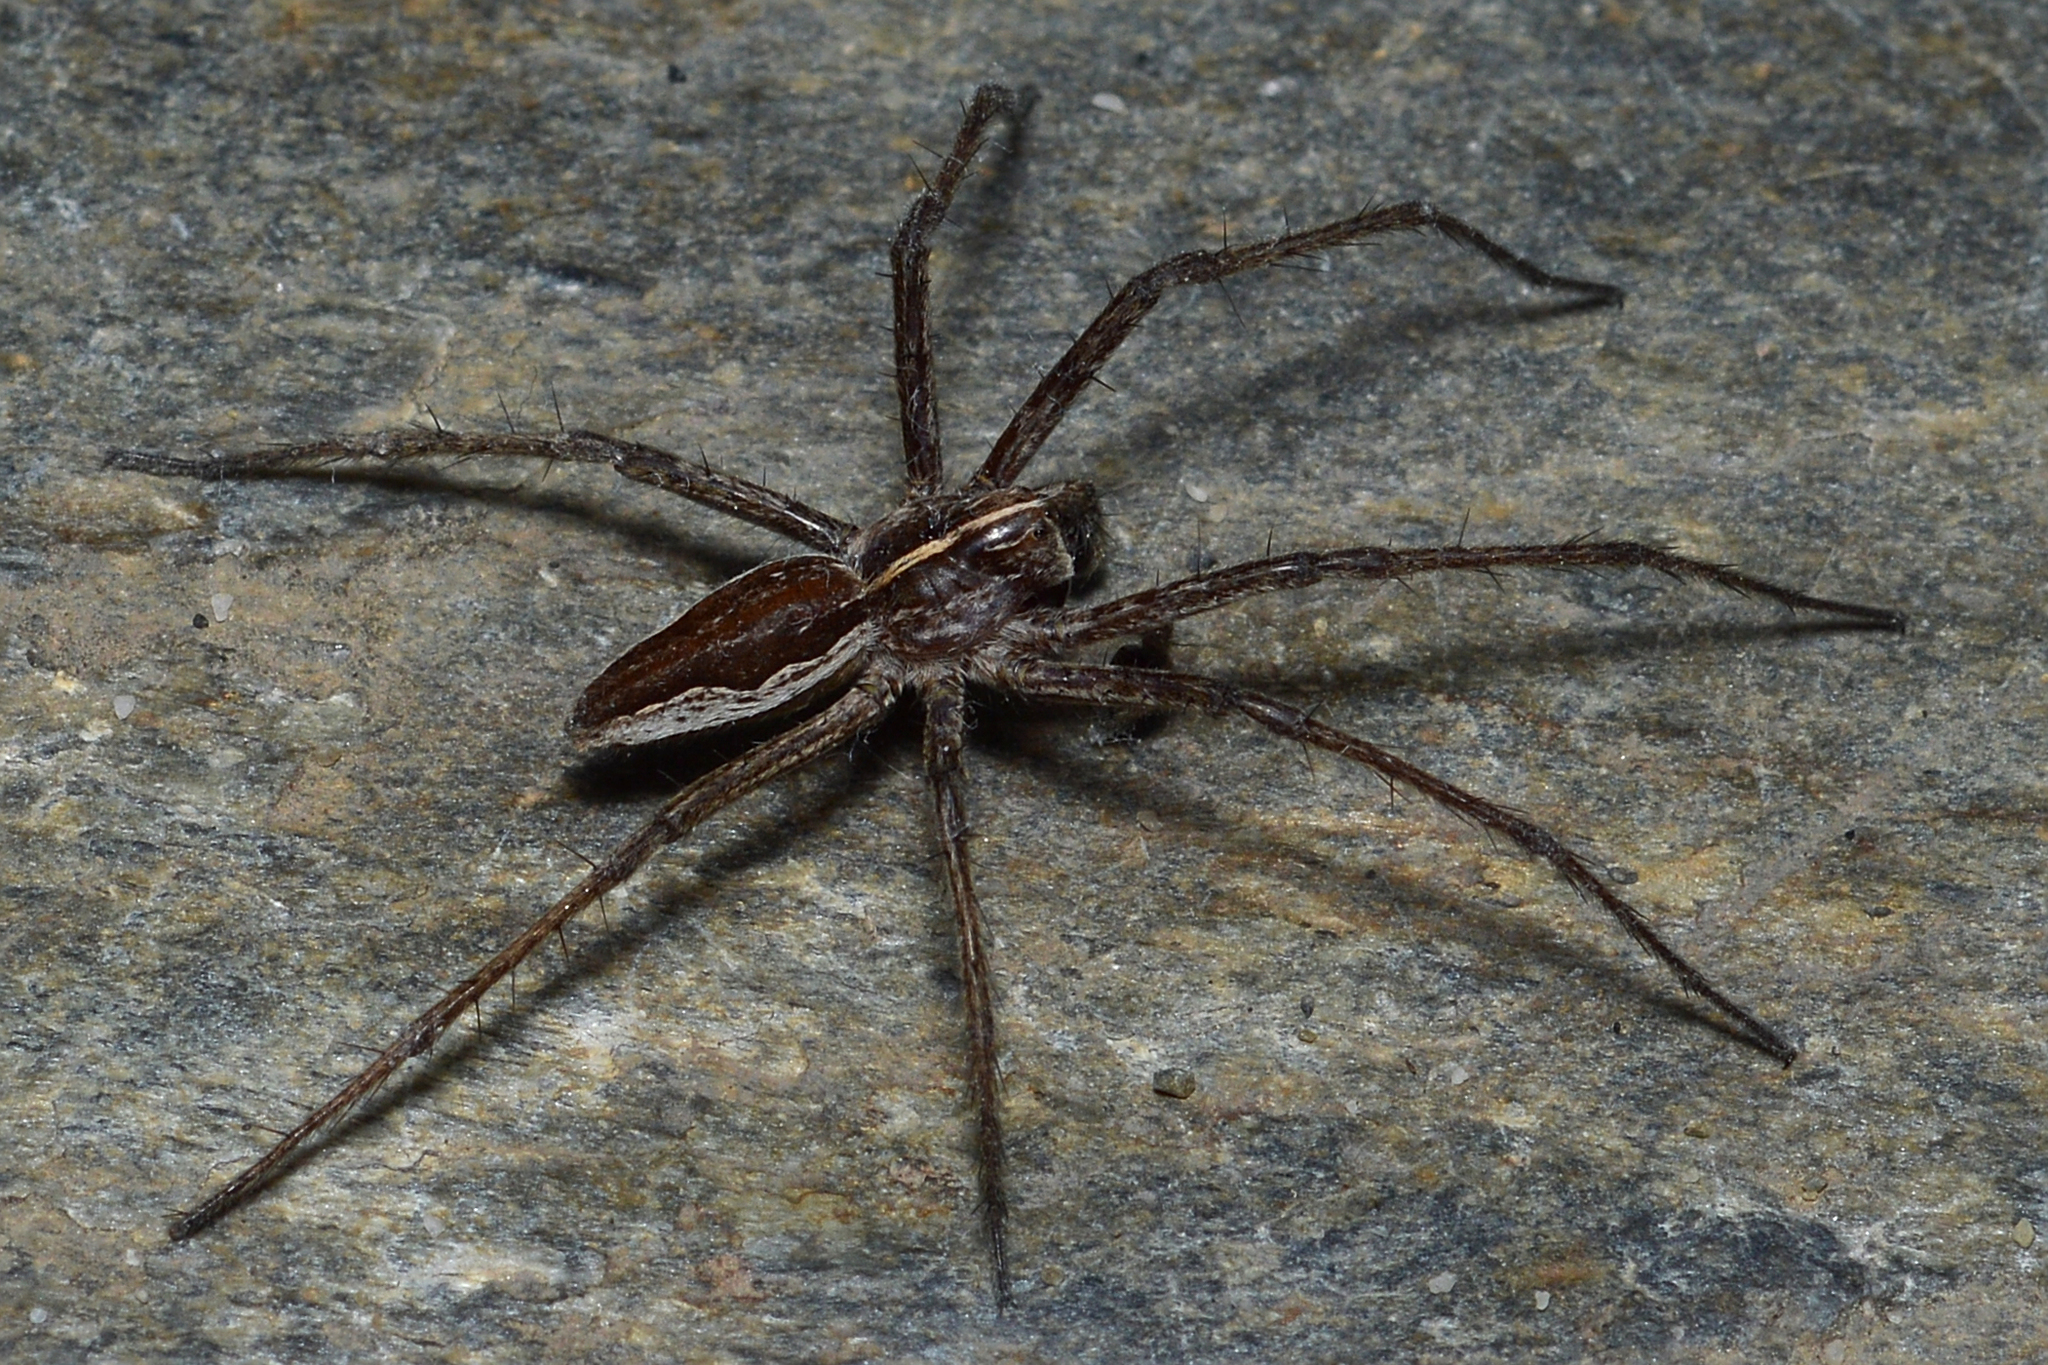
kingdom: Animalia
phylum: Arthropoda
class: Arachnida
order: Araneae
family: Pisauridae
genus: Pisaura
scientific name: Pisaura mirabilis
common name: Tent spider
